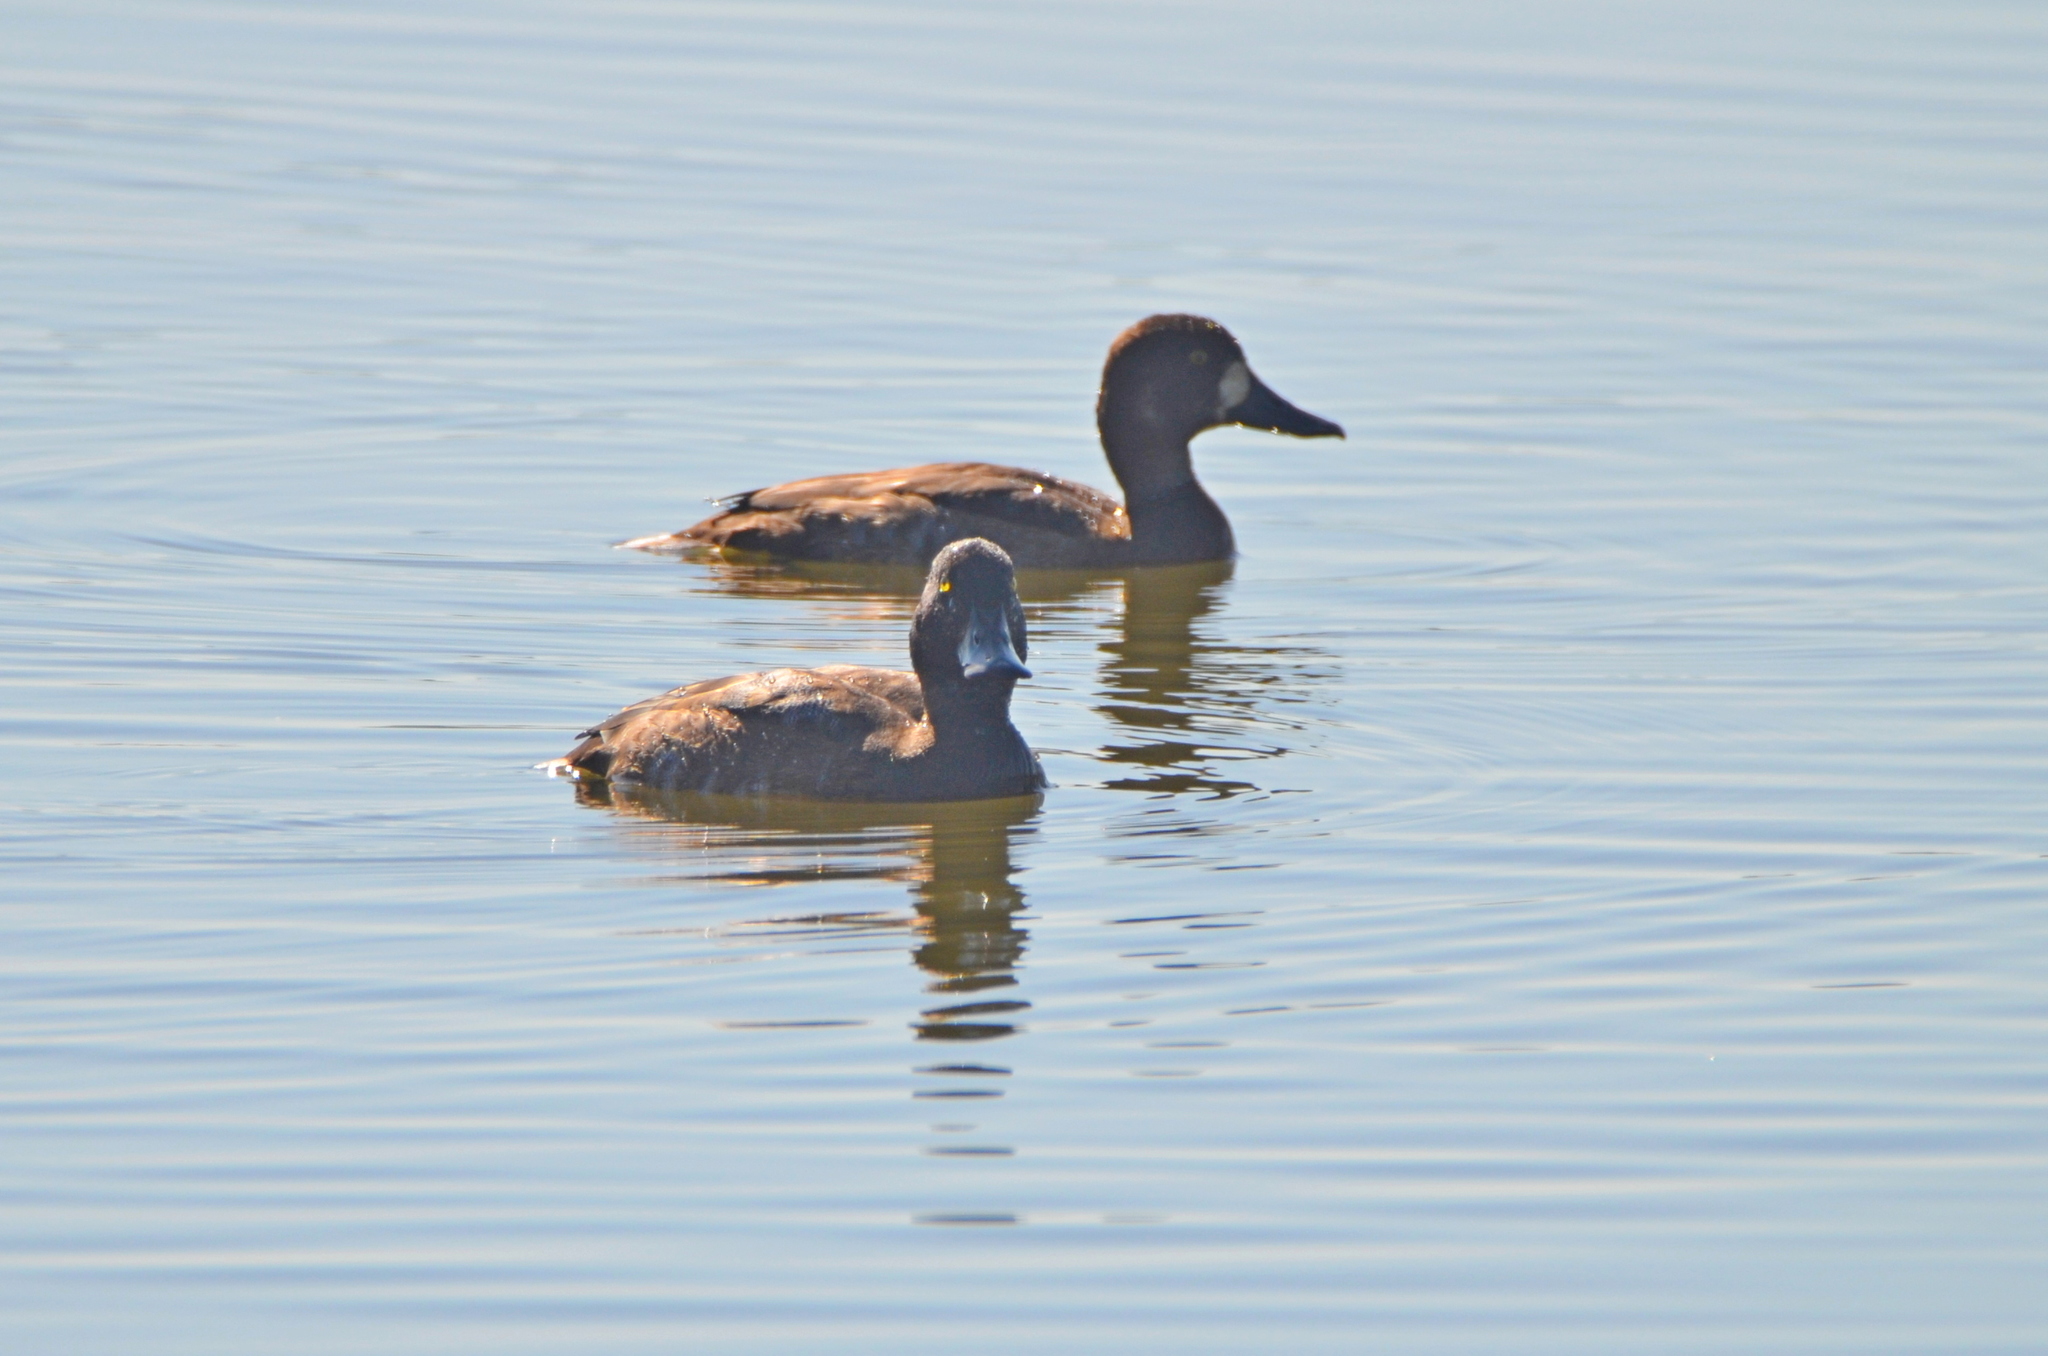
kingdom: Animalia
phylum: Chordata
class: Aves
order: Anseriformes
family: Anatidae
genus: Aythya
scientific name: Aythya marila
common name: Greater scaup
